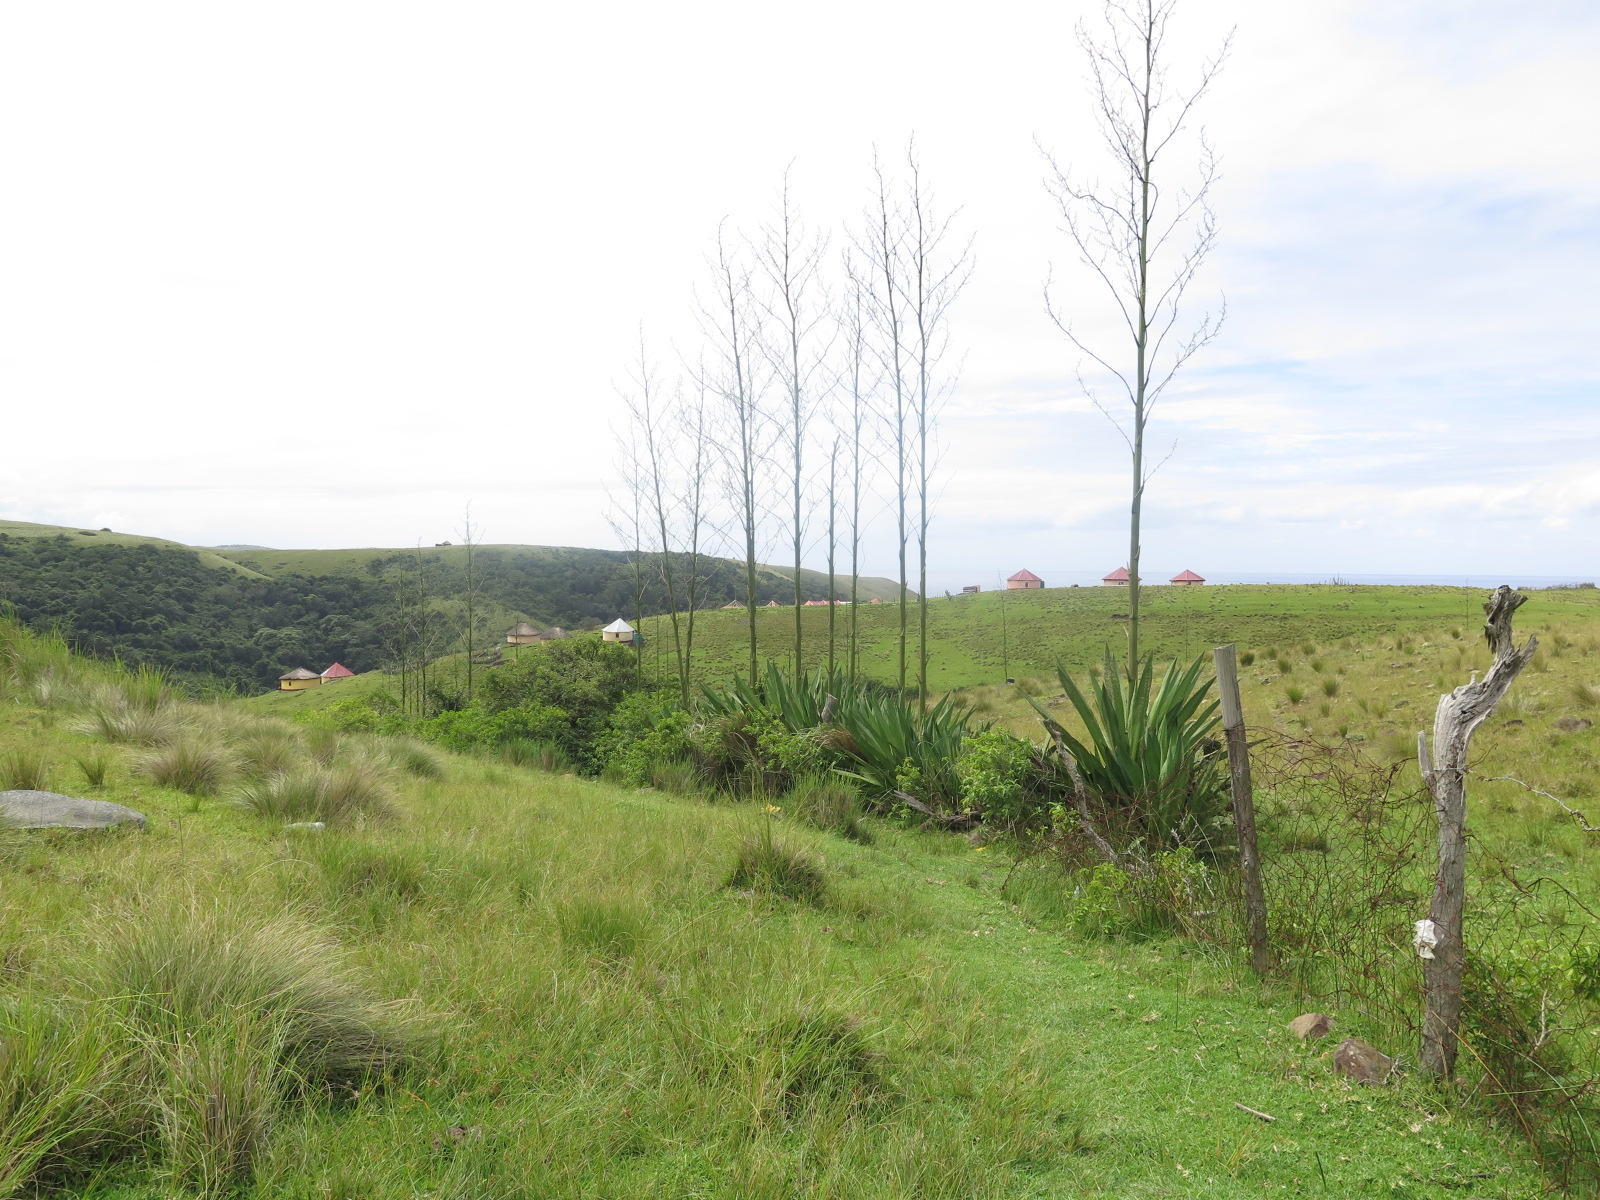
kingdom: Plantae
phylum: Tracheophyta
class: Liliopsida
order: Asparagales
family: Asparagaceae
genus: Furcraea
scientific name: Furcraea foetida
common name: Mauritius hemp
